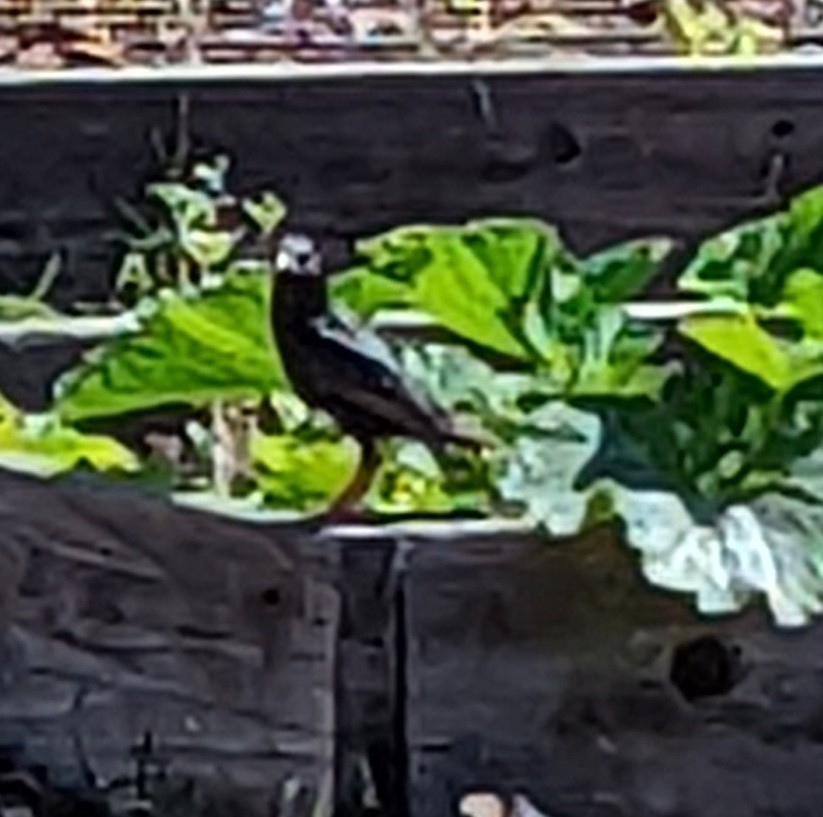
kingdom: Animalia
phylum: Chordata
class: Aves
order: Passeriformes
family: Sturnidae
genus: Sturnus
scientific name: Sturnus vulgaris
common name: Common starling
